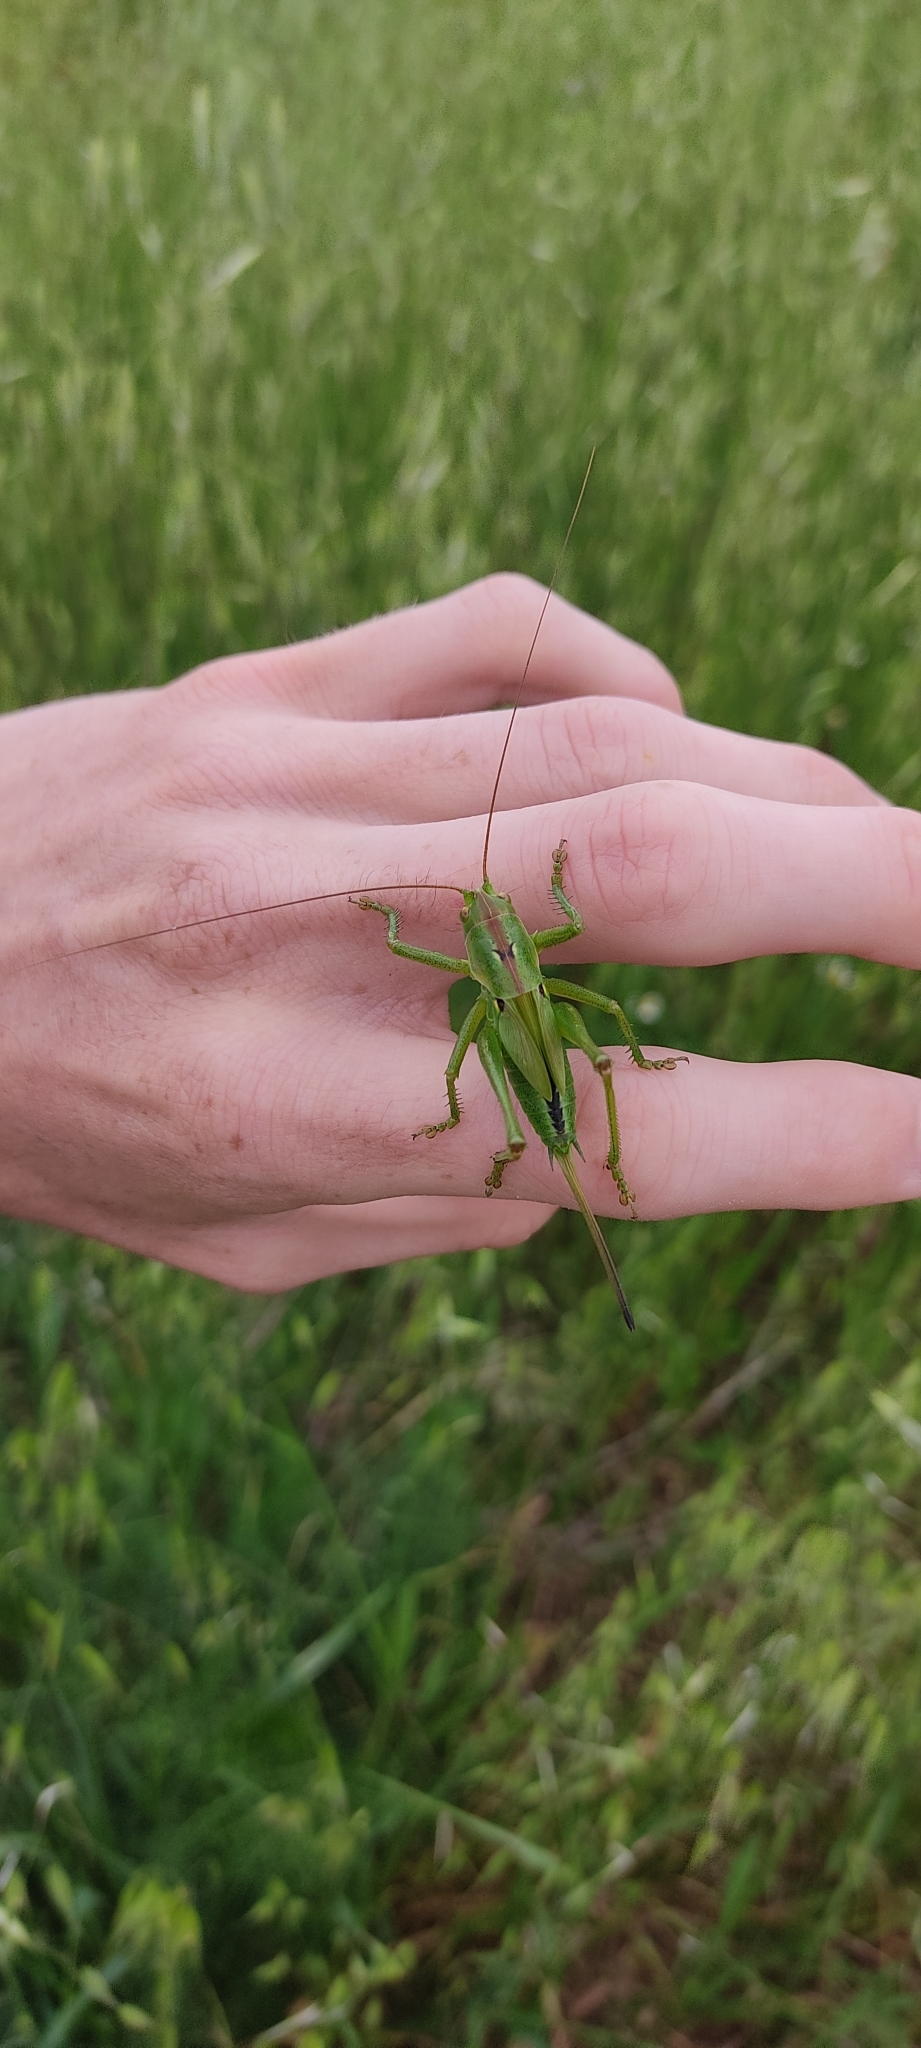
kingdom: Animalia
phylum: Arthropoda
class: Insecta
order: Orthoptera
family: Tettigoniidae
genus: Tettigonia
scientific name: Tettigonia viridissima
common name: Great green bush-cricket
